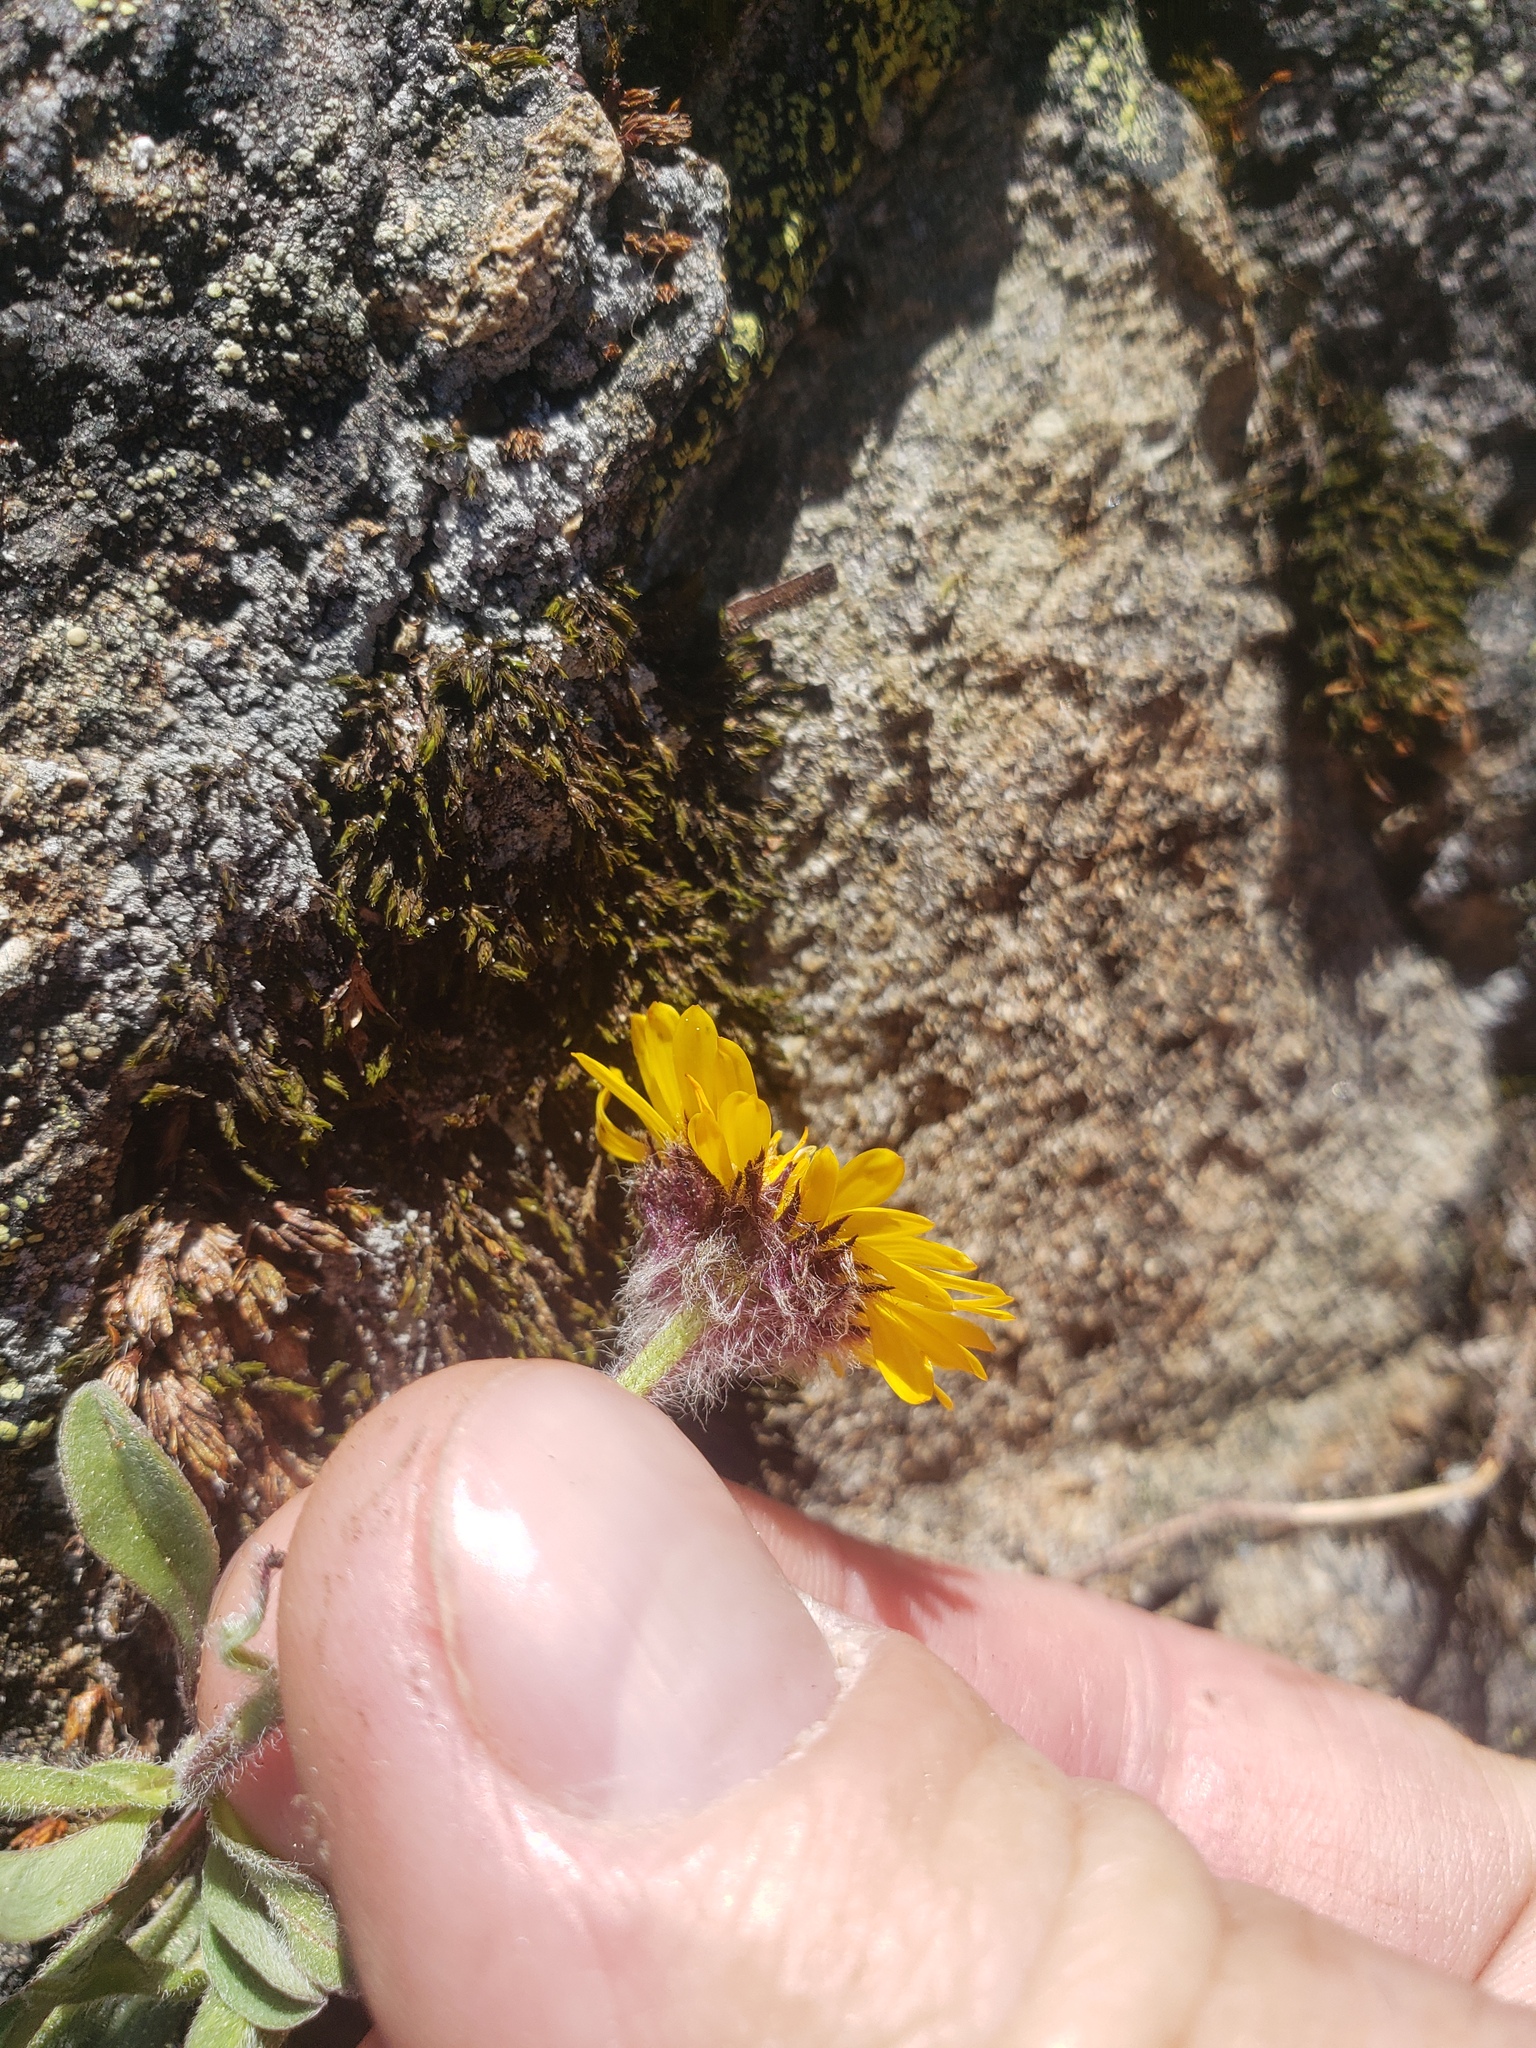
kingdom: Plantae
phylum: Tracheophyta
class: Magnoliopsida
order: Asterales
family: Asteraceae
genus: Erigeron
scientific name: Erigeron aureus
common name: Alpine yellow fleabane
